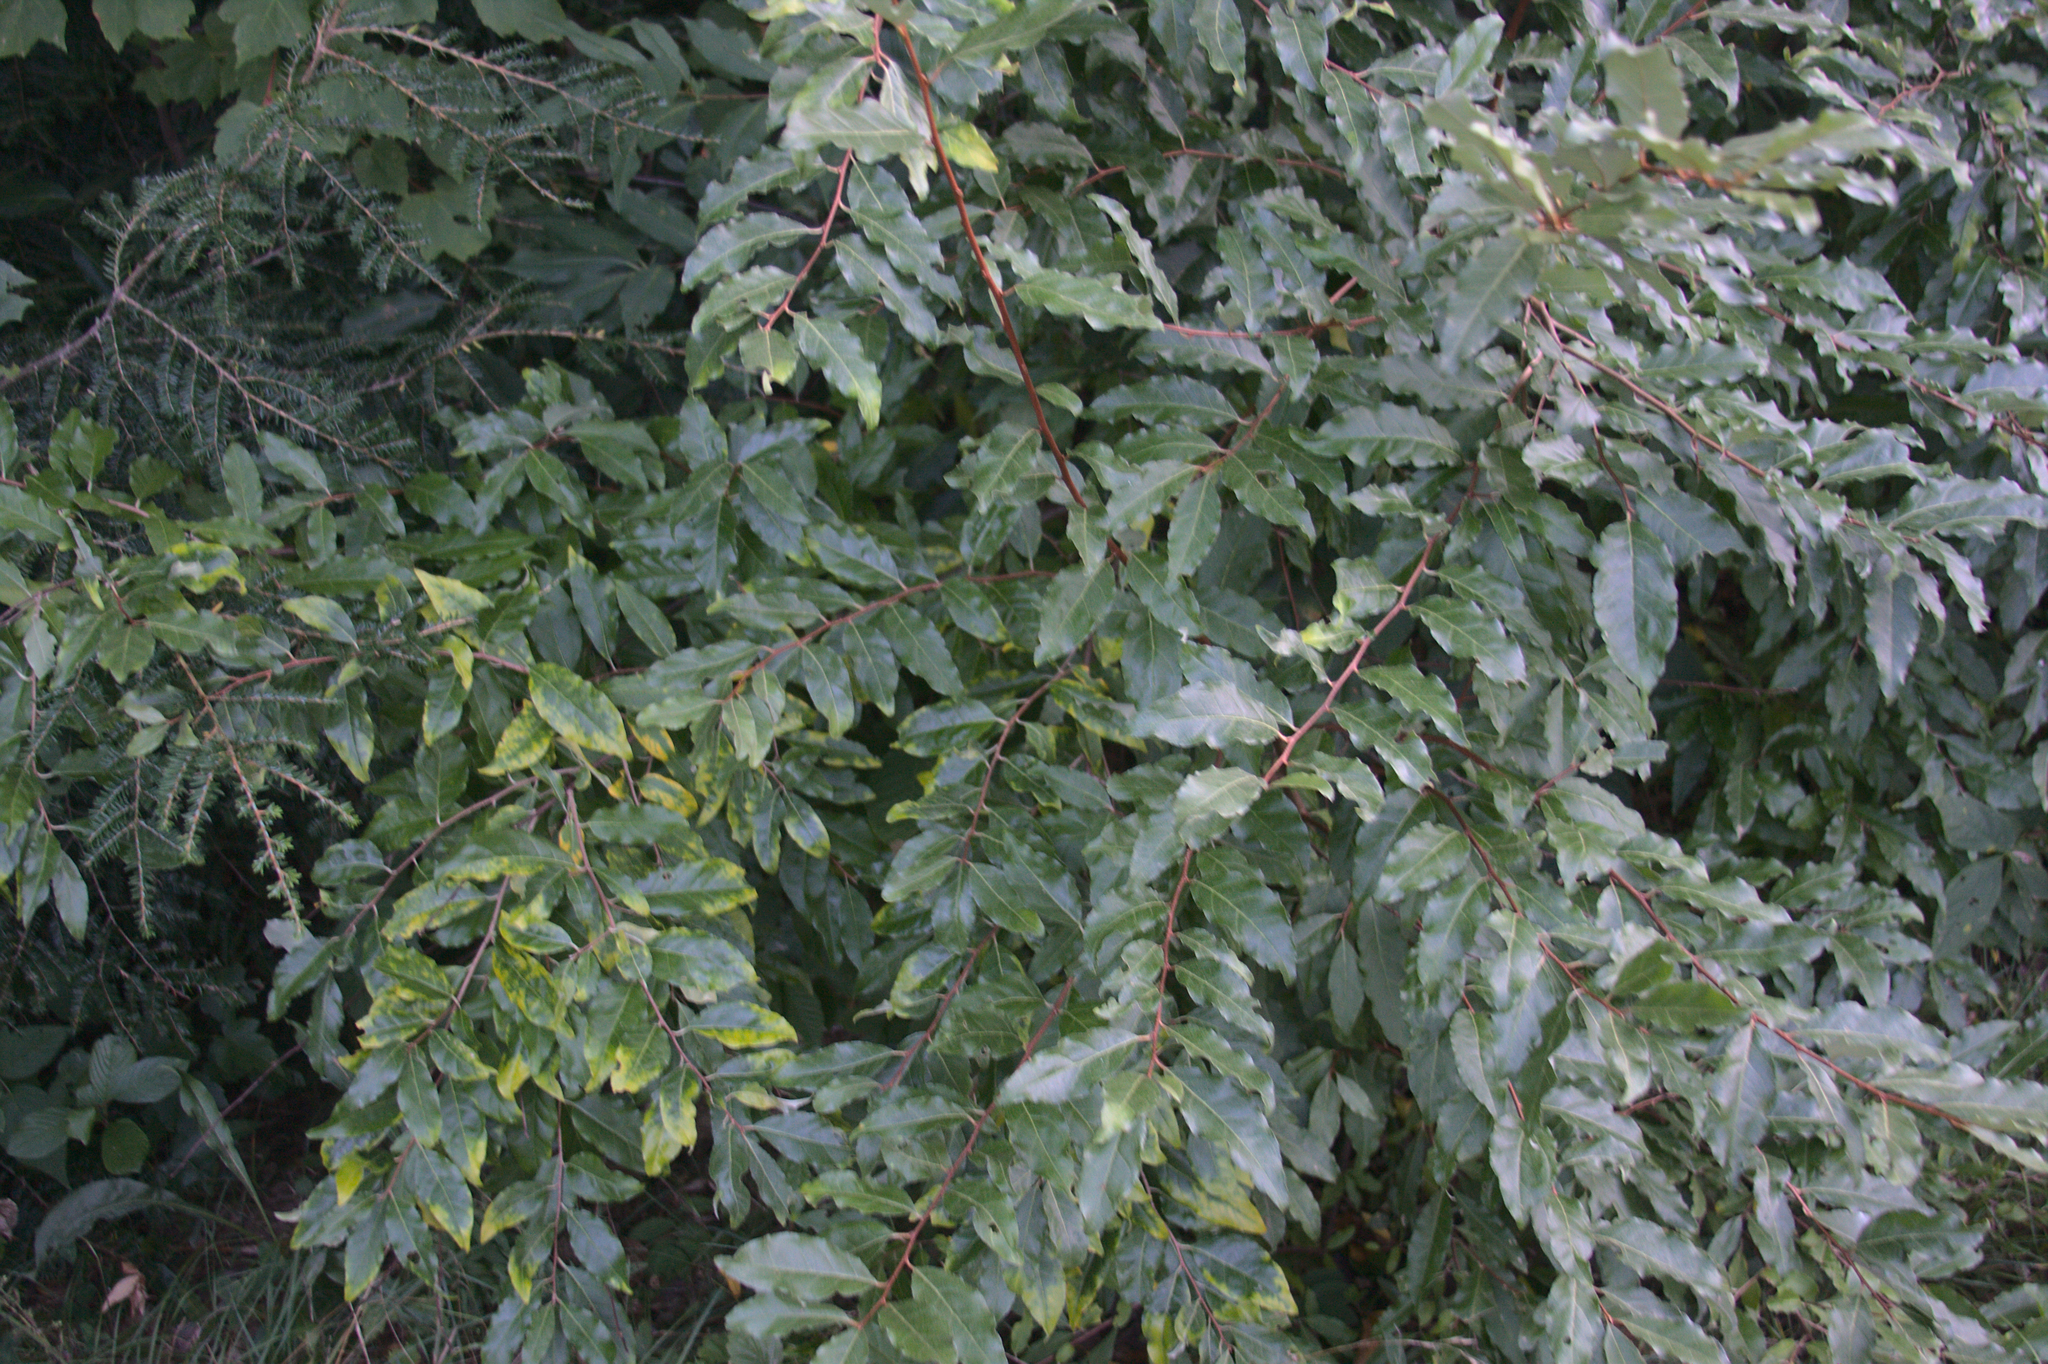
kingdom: Plantae
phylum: Tracheophyta
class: Magnoliopsida
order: Rosales
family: Elaeagnaceae
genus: Elaeagnus
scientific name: Elaeagnus umbellata
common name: Autumn olive
